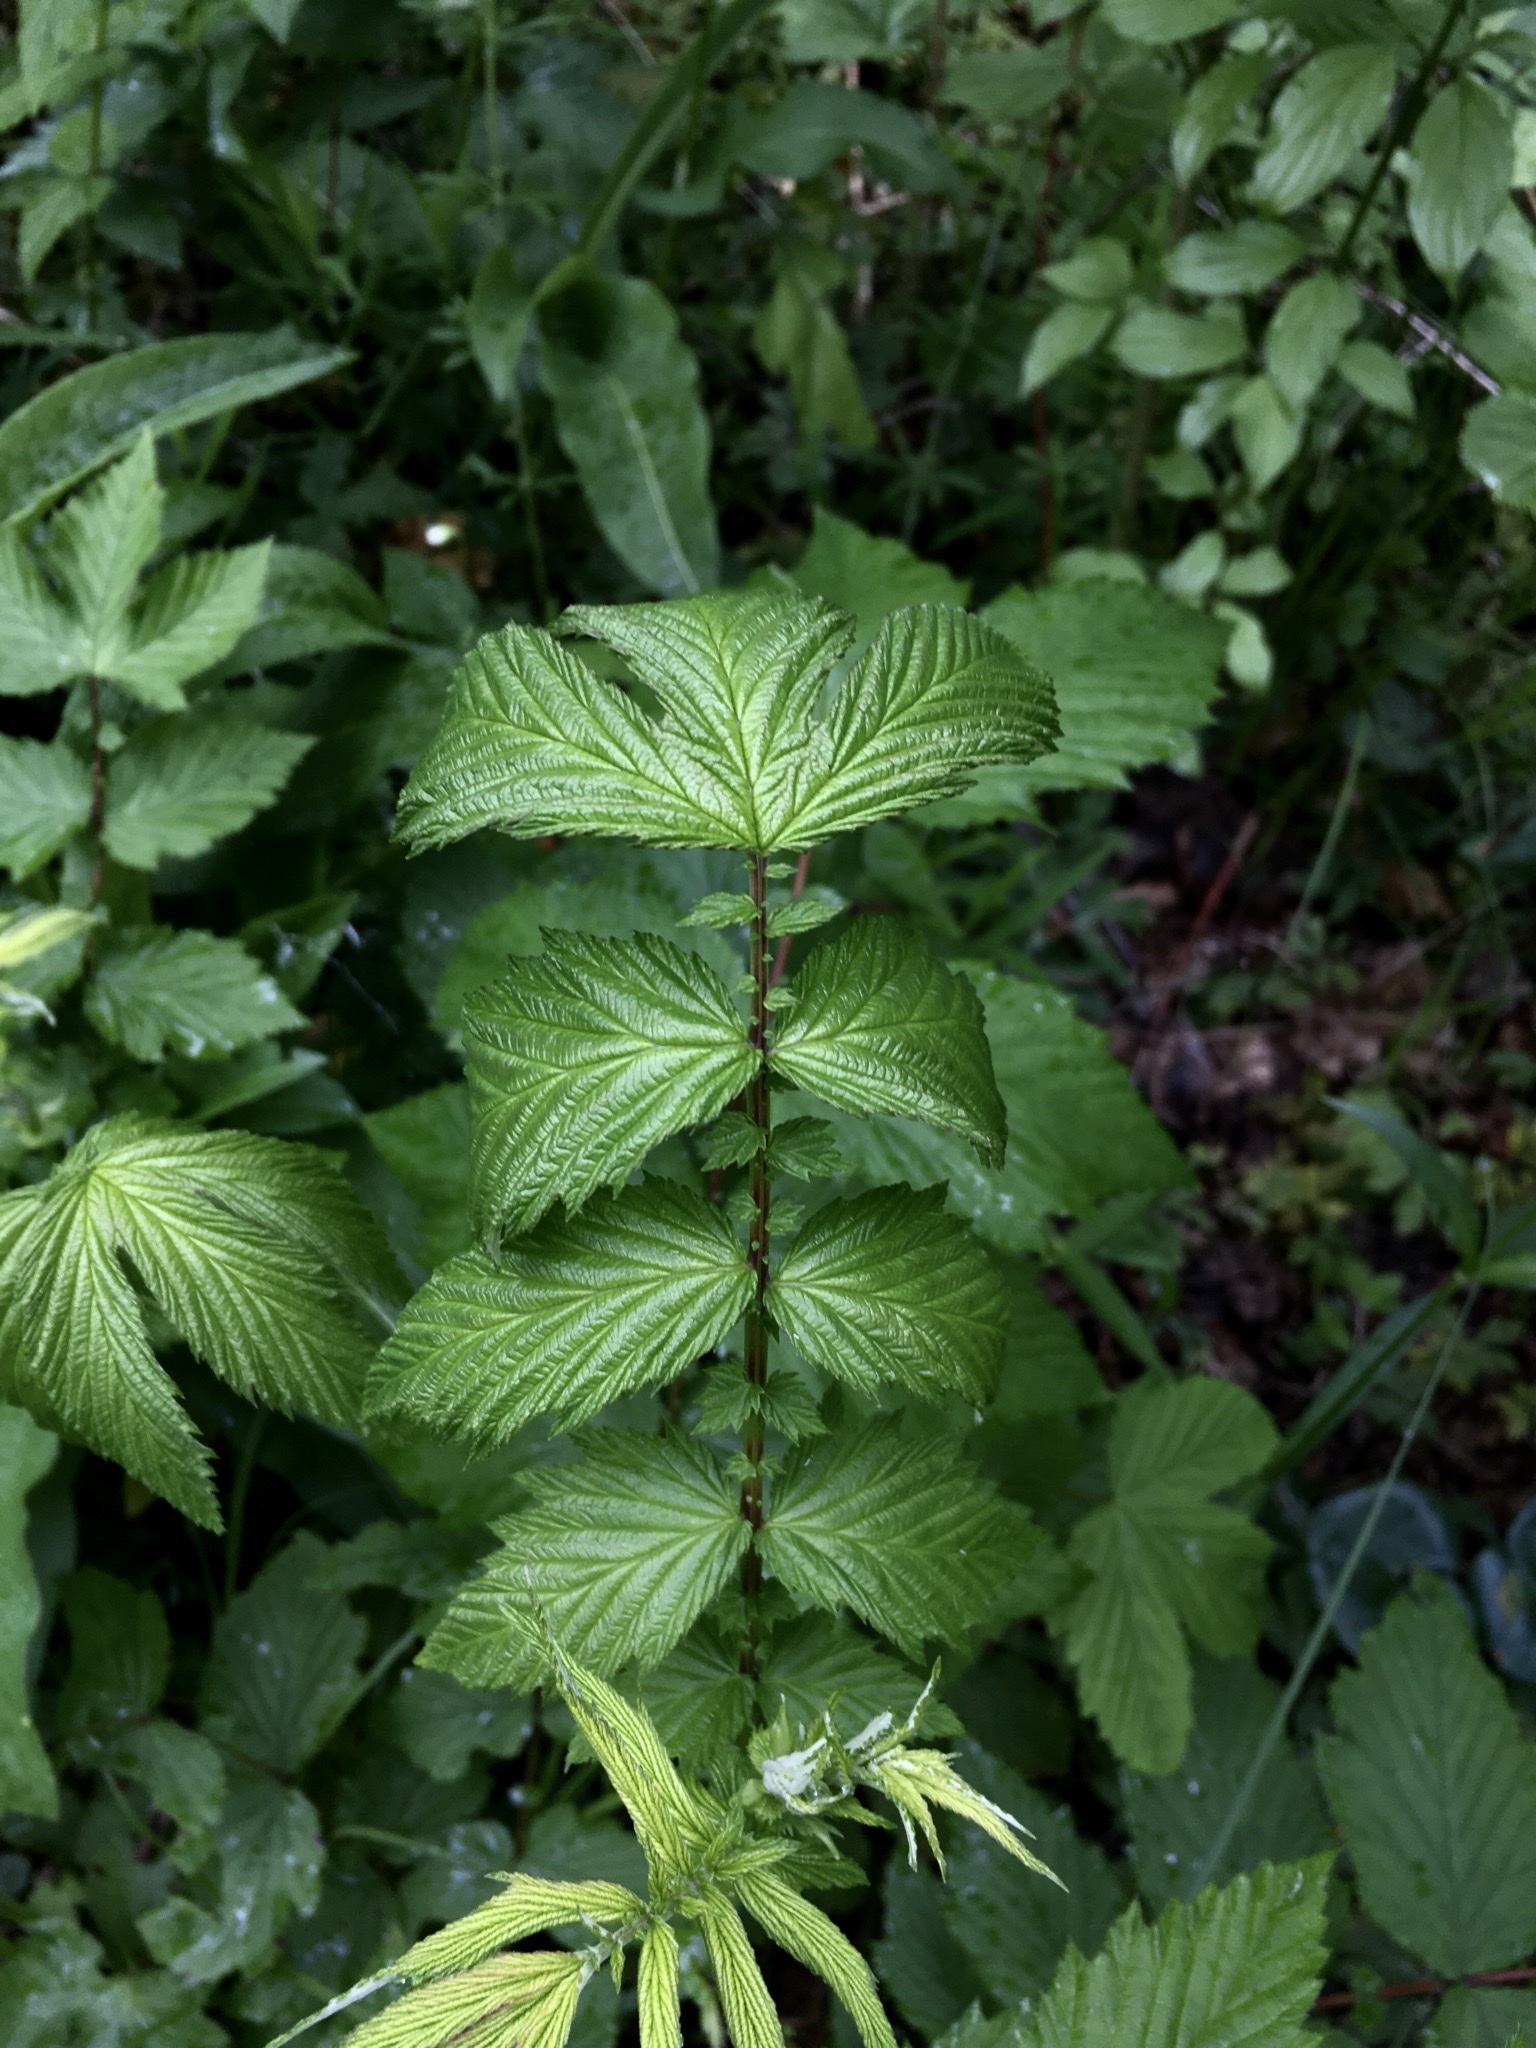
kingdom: Plantae
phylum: Tracheophyta
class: Magnoliopsida
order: Rosales
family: Rosaceae
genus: Filipendula
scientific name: Filipendula ulmaria
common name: Meadowsweet
